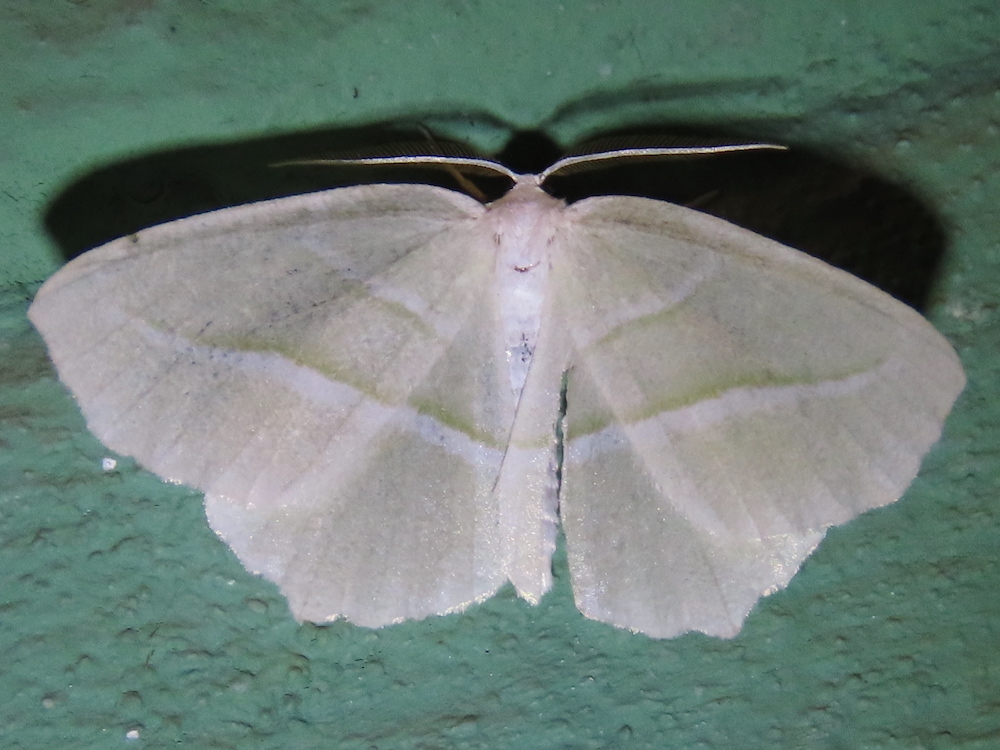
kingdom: Animalia
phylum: Arthropoda
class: Insecta
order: Lepidoptera
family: Geometridae
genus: Campaea
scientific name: Campaea perlata
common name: Fringed looper
